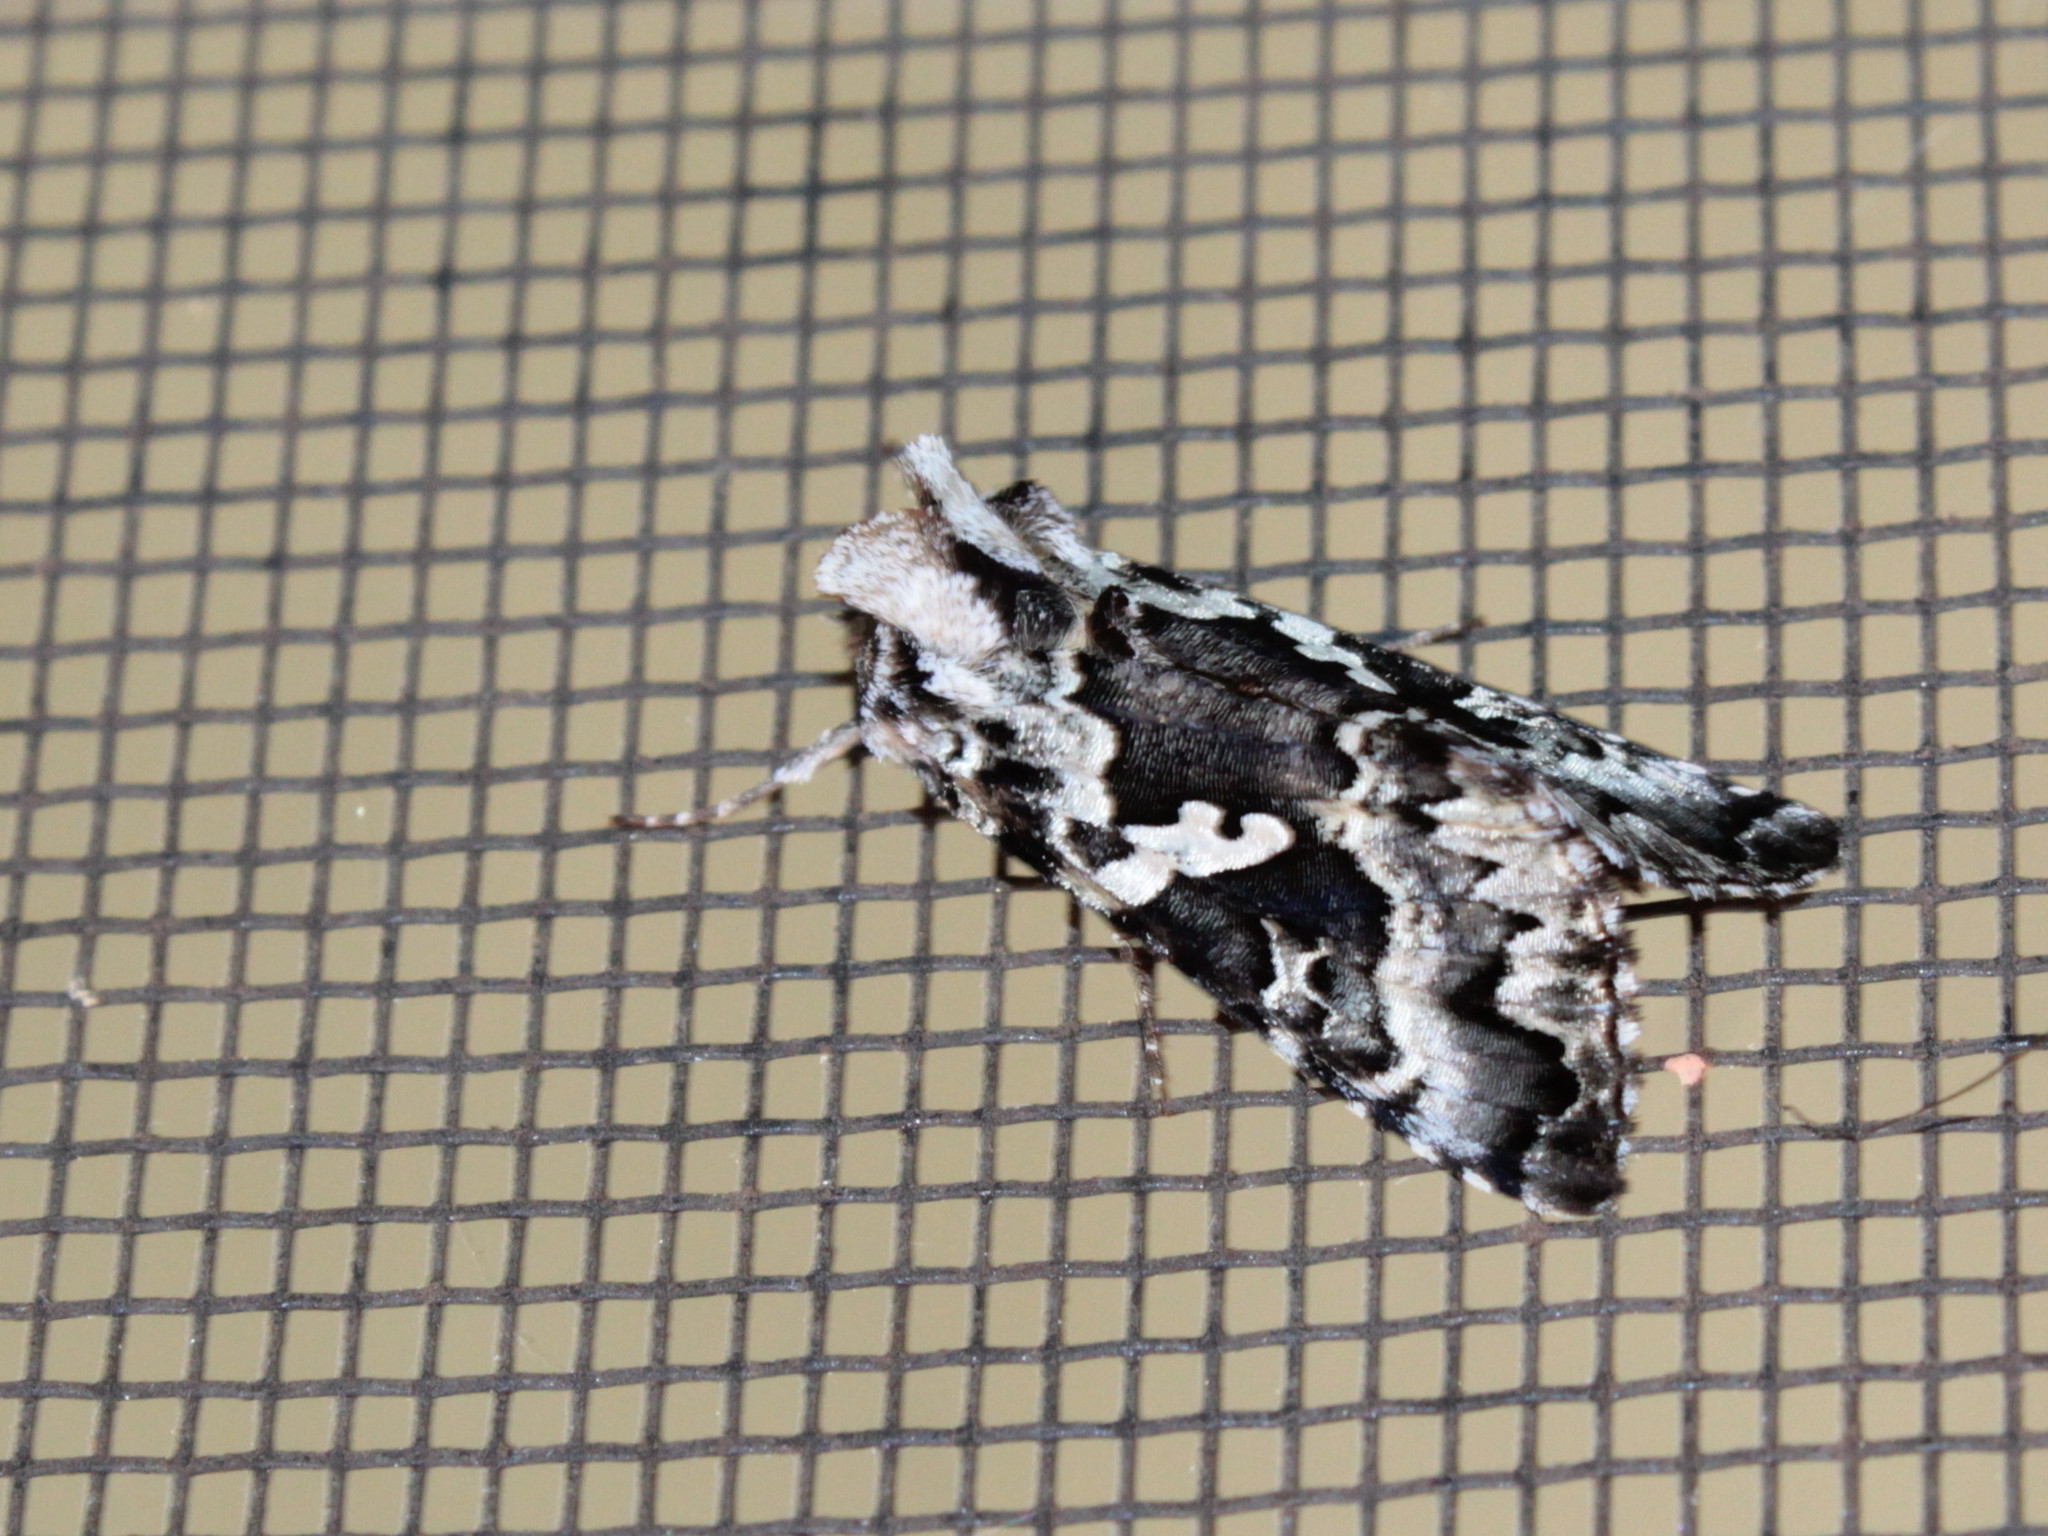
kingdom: Animalia
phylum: Arthropoda
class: Insecta
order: Lepidoptera
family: Noctuidae
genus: Syngrapha
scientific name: Syngrapha rectangula
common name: Angulated cutworm
